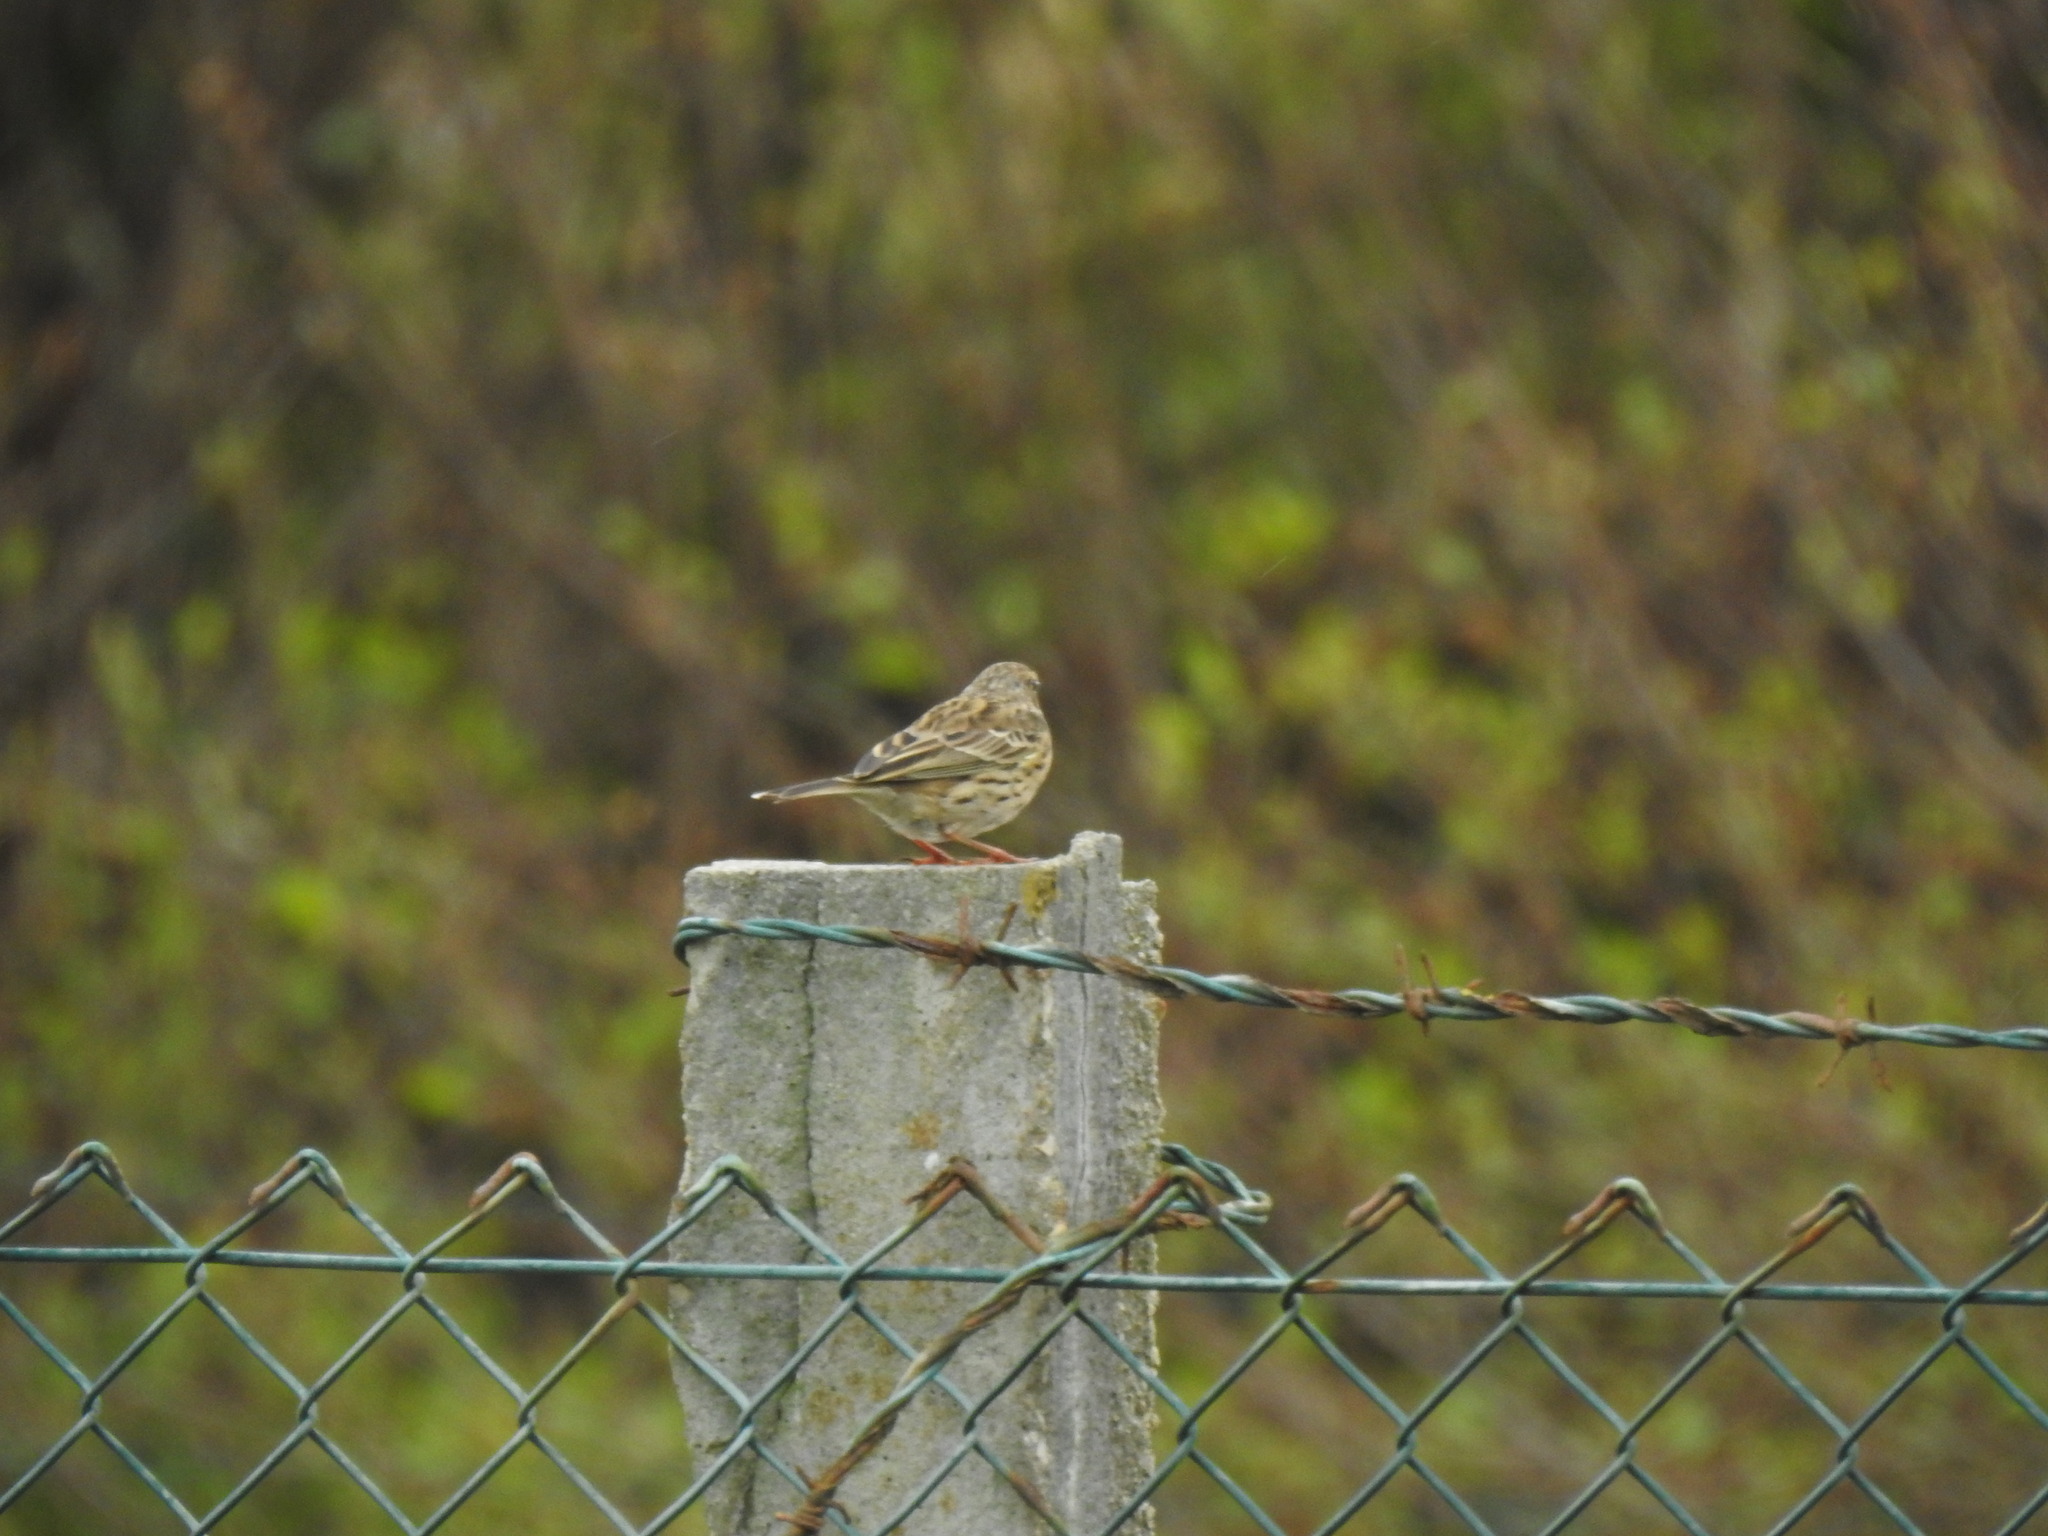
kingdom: Animalia
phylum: Chordata
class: Aves
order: Passeriformes
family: Motacillidae
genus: Anthus
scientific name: Anthus pratensis
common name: Meadow pipit
